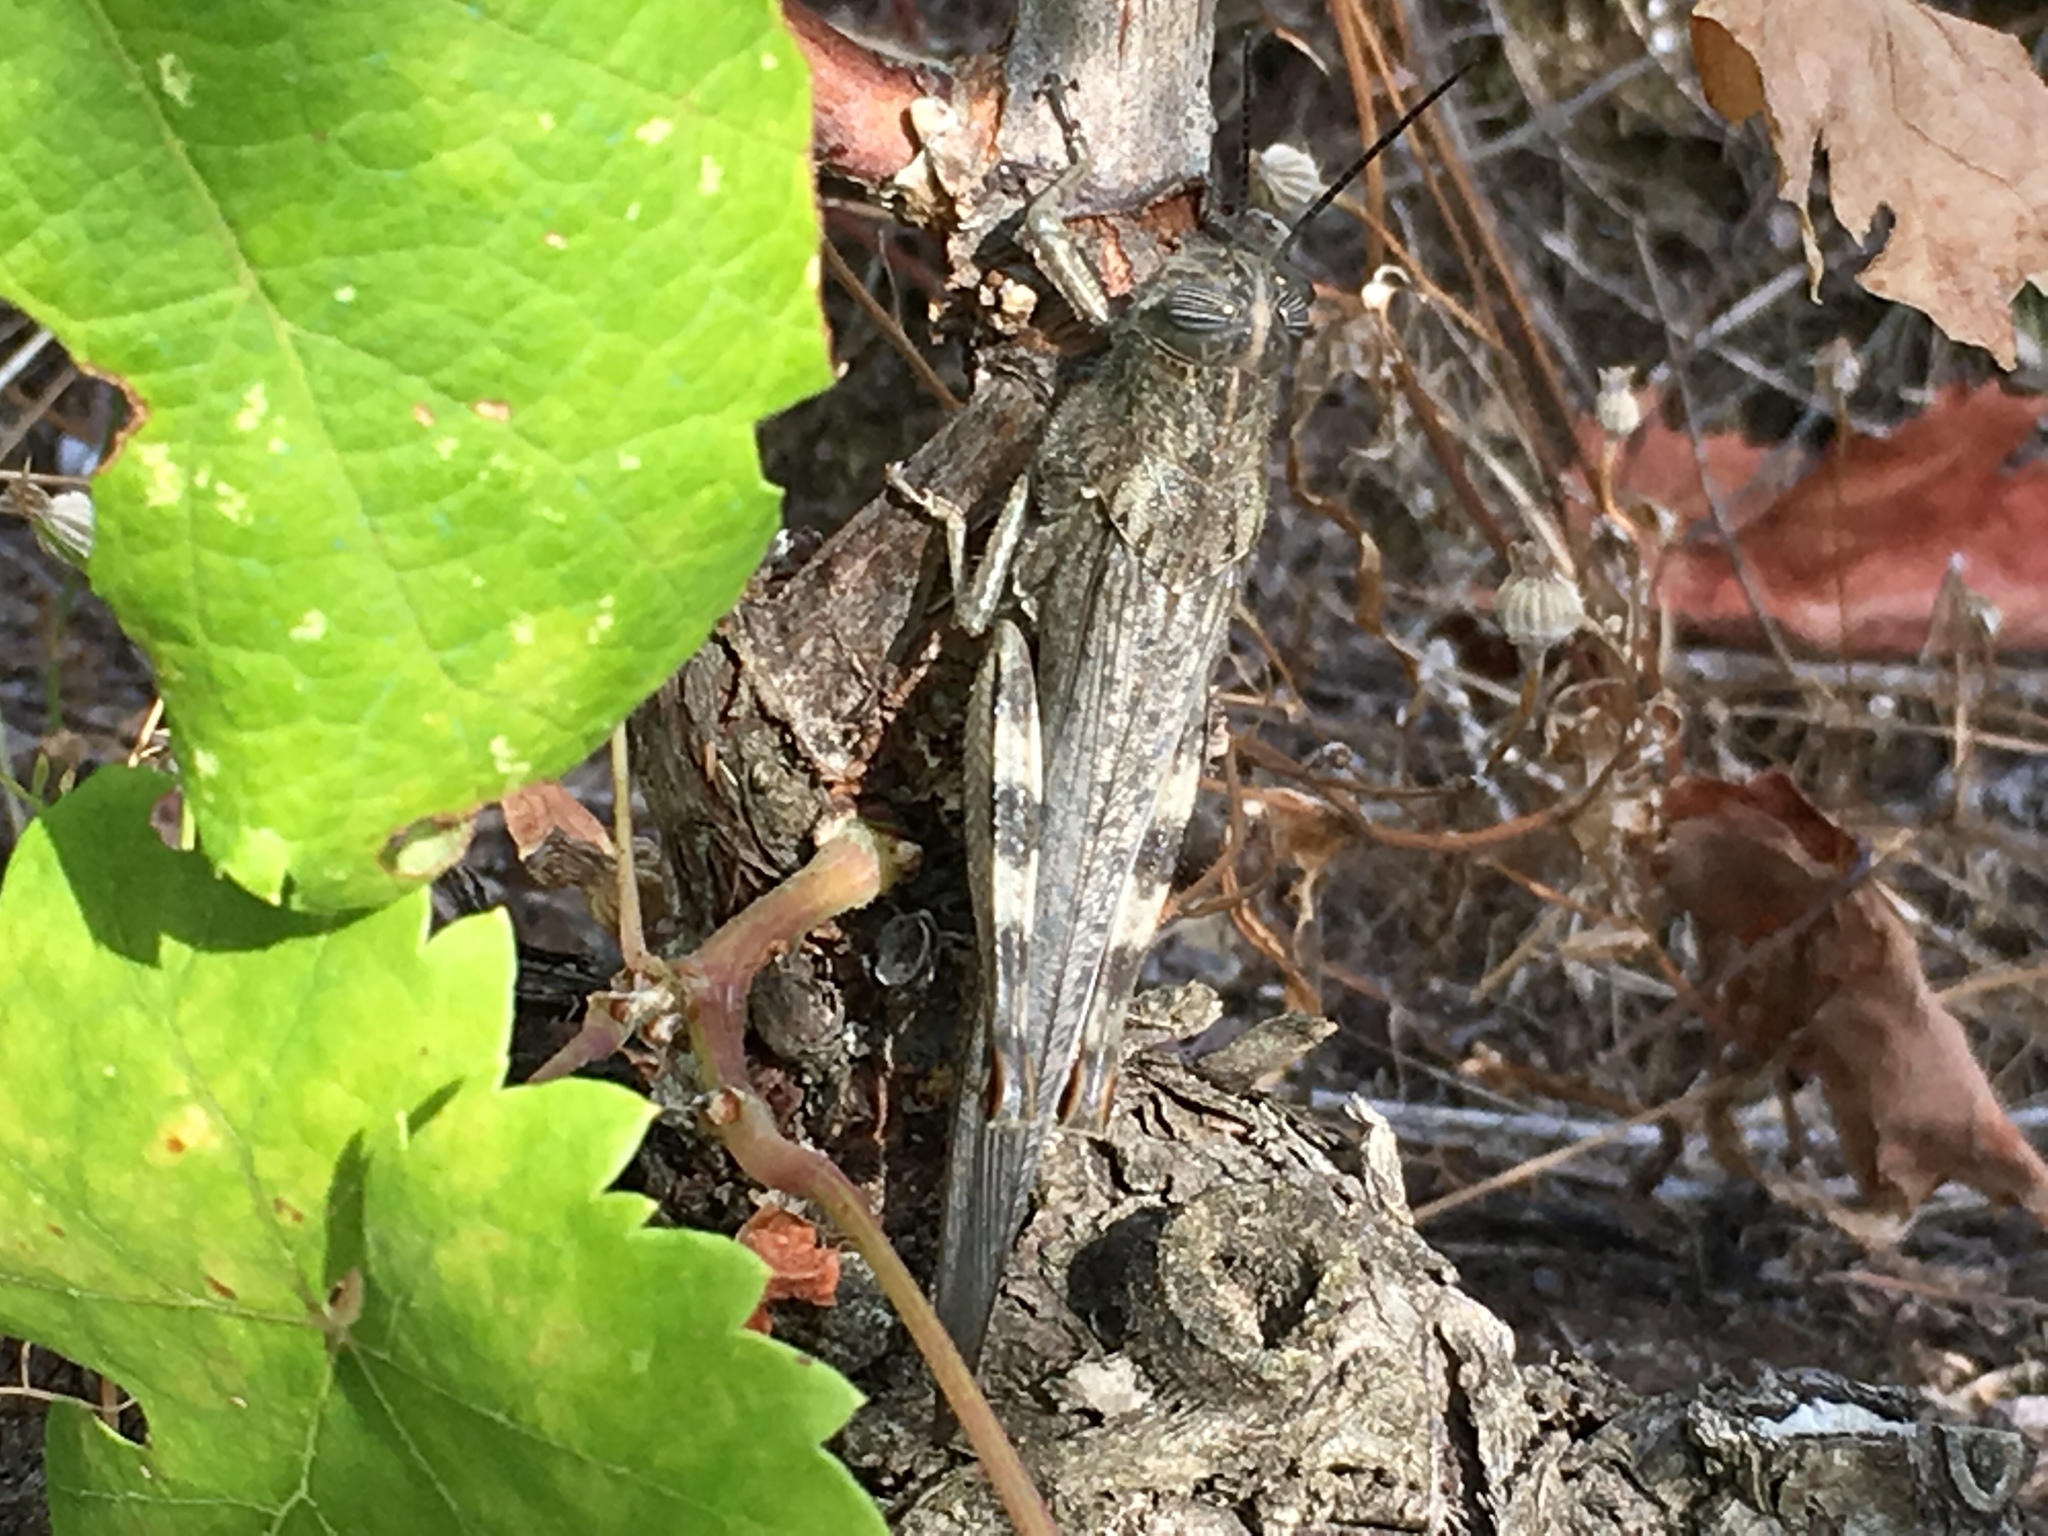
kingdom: Animalia
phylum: Arthropoda
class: Insecta
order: Orthoptera
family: Acrididae
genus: Anacridium
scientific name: Anacridium aegyptium
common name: Egyptian grasshopper
